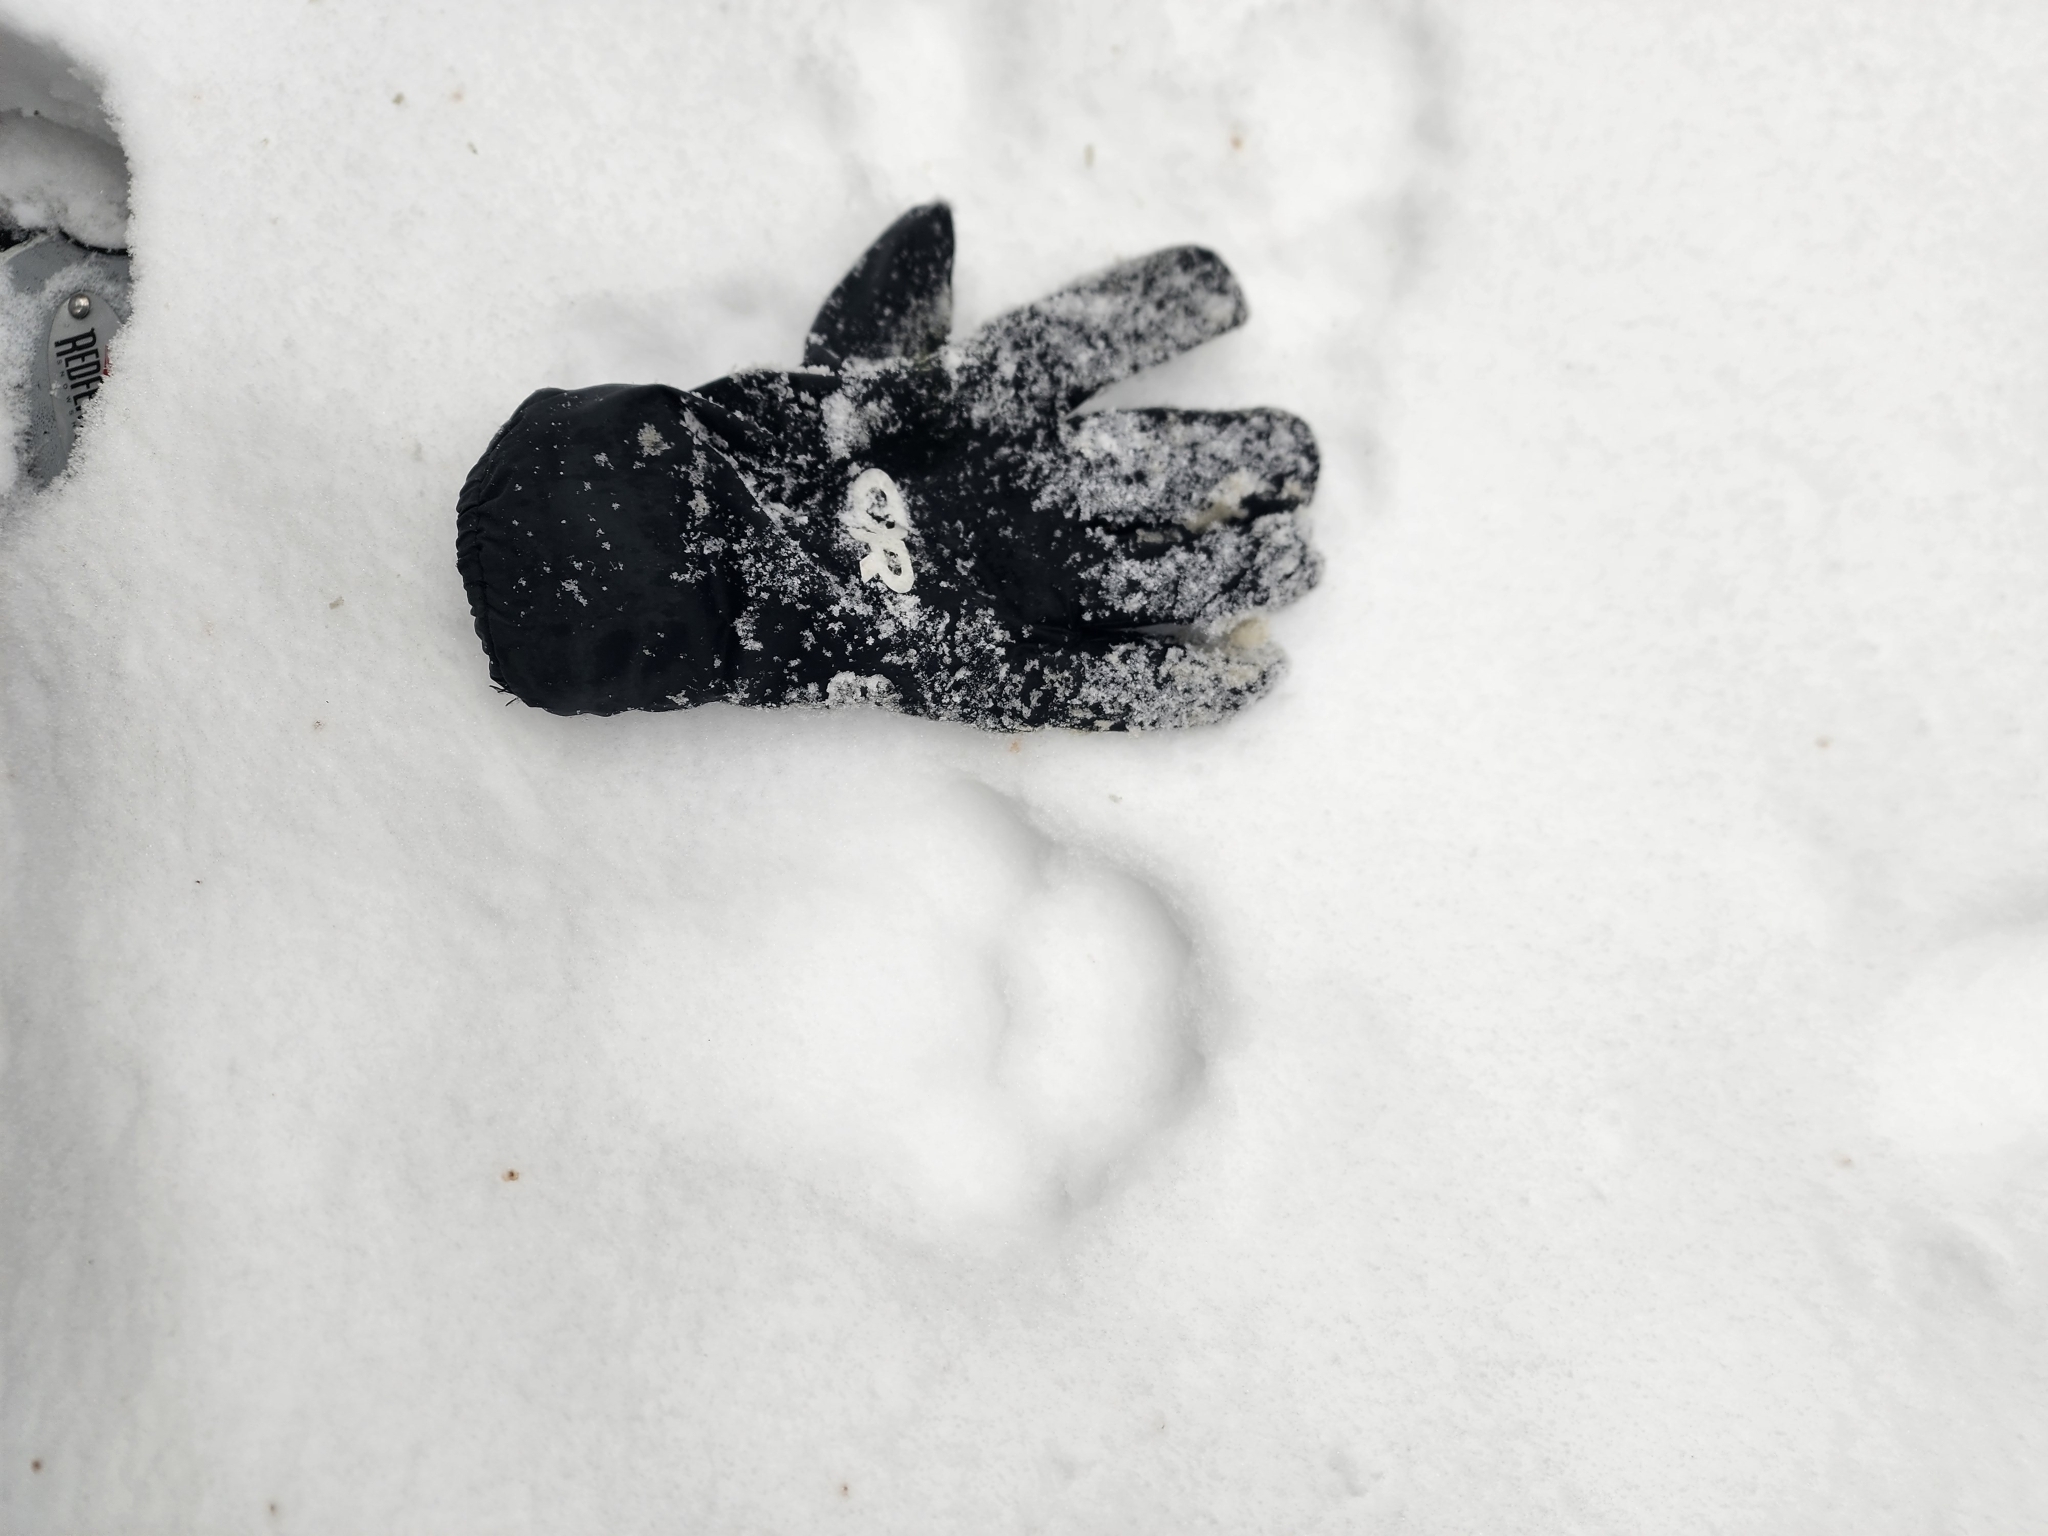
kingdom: Animalia
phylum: Chordata
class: Mammalia
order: Carnivora
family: Felidae
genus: Lynx
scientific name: Lynx canadensis
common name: Canadian lynx
